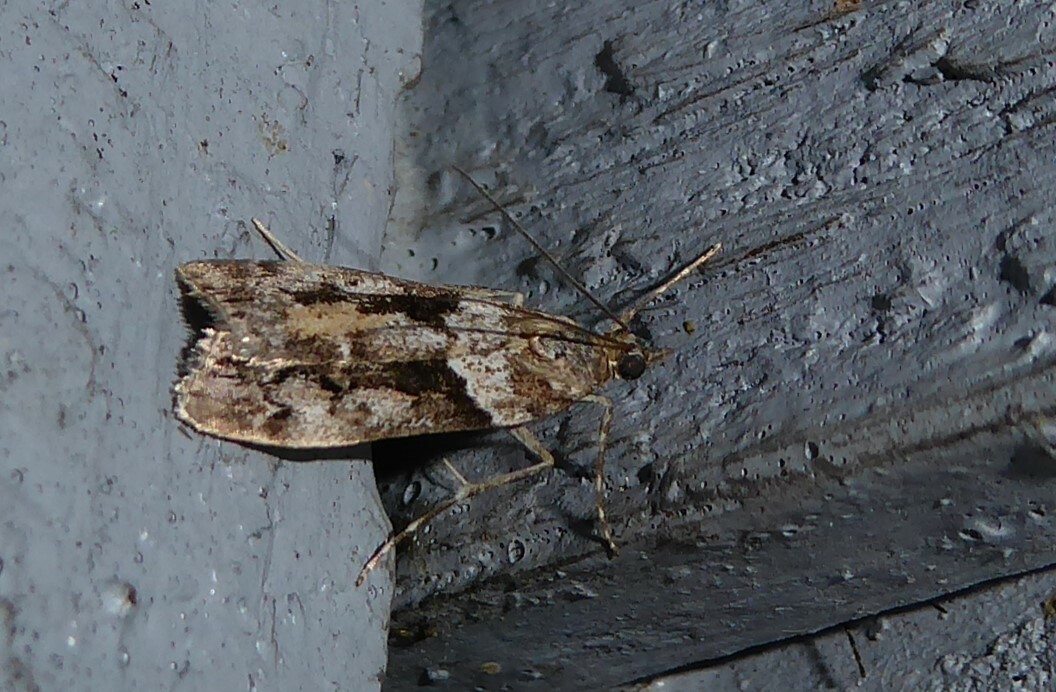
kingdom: Animalia
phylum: Arthropoda
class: Insecta
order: Lepidoptera
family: Crambidae
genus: Eudonia
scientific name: Eudonia submarginalis
